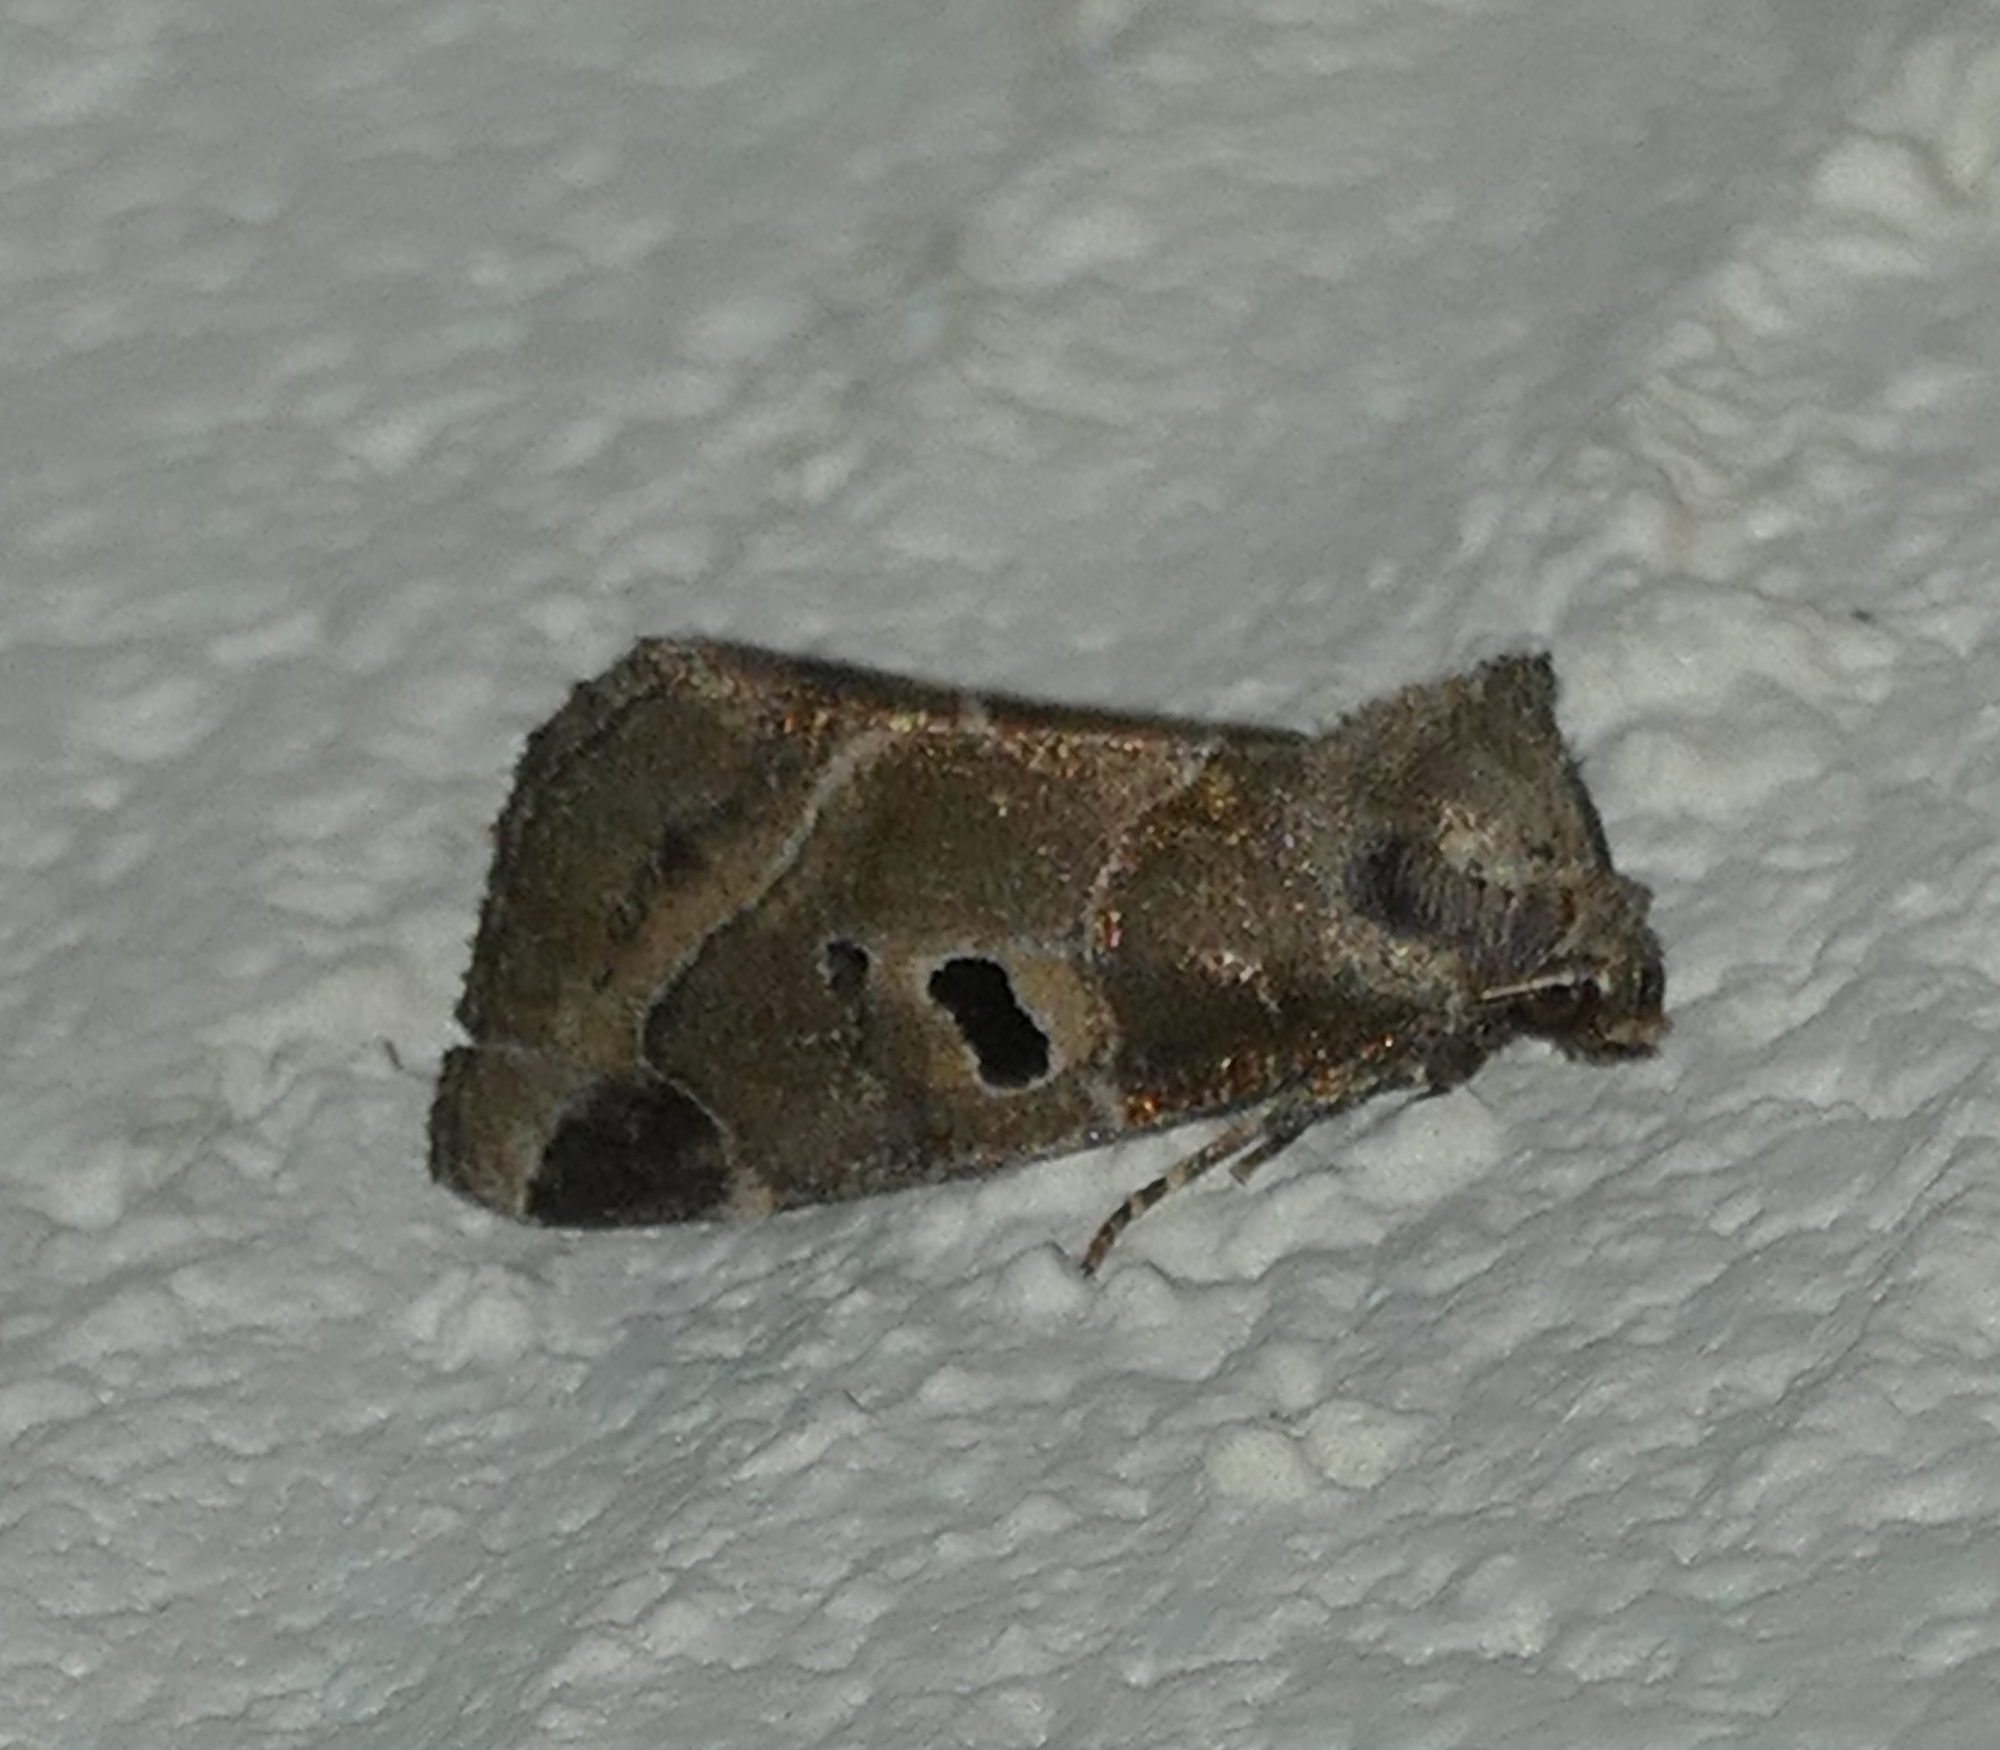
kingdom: Animalia
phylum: Arthropoda
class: Insecta
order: Lepidoptera
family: Noctuidae
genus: Plagiomimicus
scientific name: Plagiomimicus pityochromus
